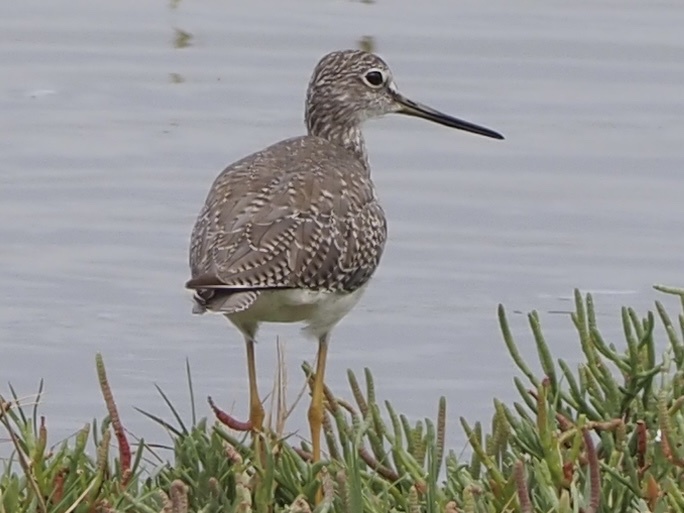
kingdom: Animalia
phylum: Chordata
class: Aves
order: Charadriiformes
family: Scolopacidae
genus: Tringa
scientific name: Tringa melanoleuca
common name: Greater yellowlegs
